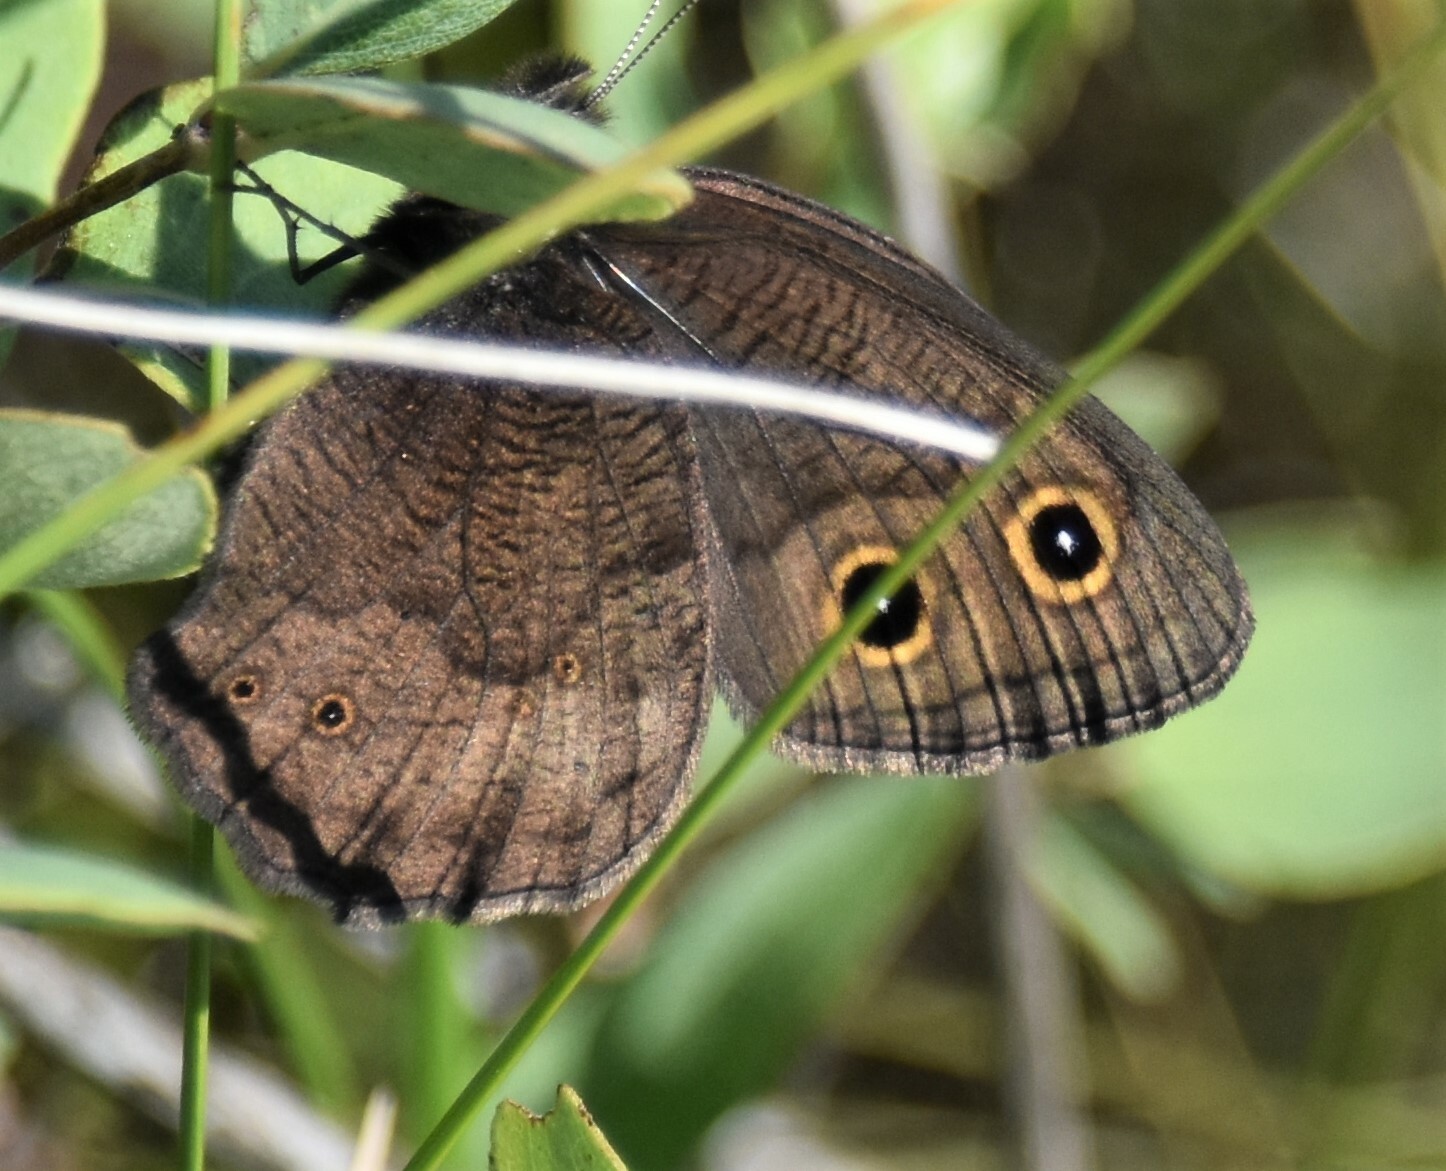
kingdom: Animalia
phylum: Arthropoda
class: Insecta
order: Lepidoptera
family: Nymphalidae
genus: Cercyonis
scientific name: Cercyonis pegala
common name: Common wood-nymph
